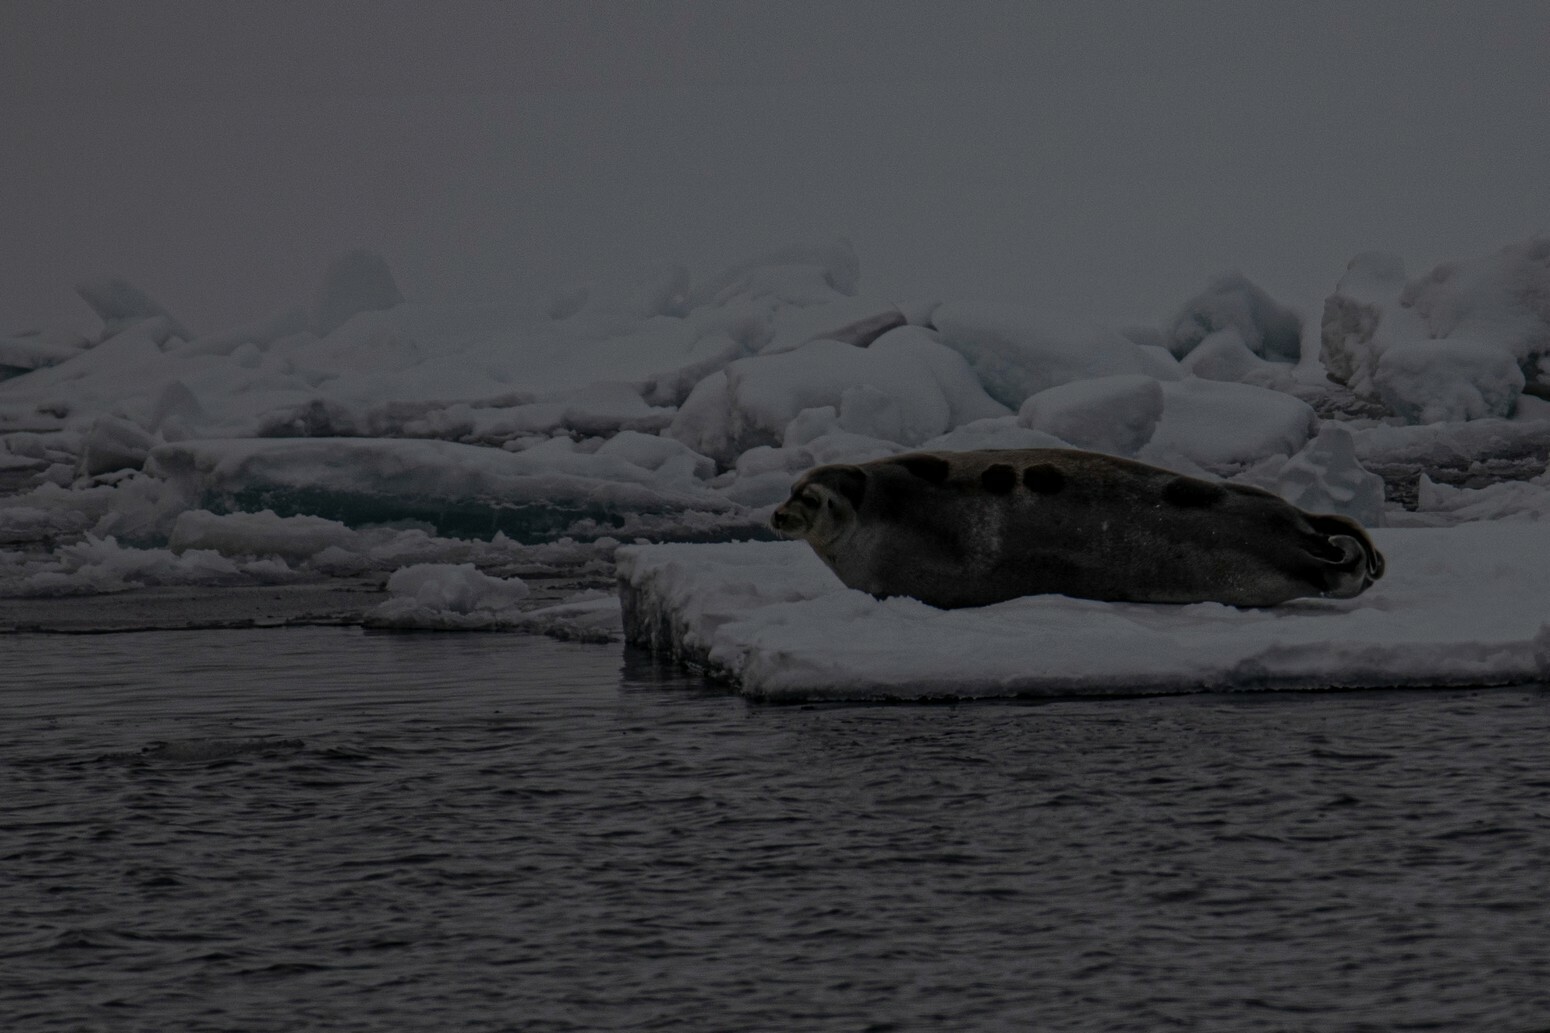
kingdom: Animalia
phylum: Chordata
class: Mammalia
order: Carnivora
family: Phocidae
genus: Erignathus
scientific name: Erignathus barbatus
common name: Bearded seal
